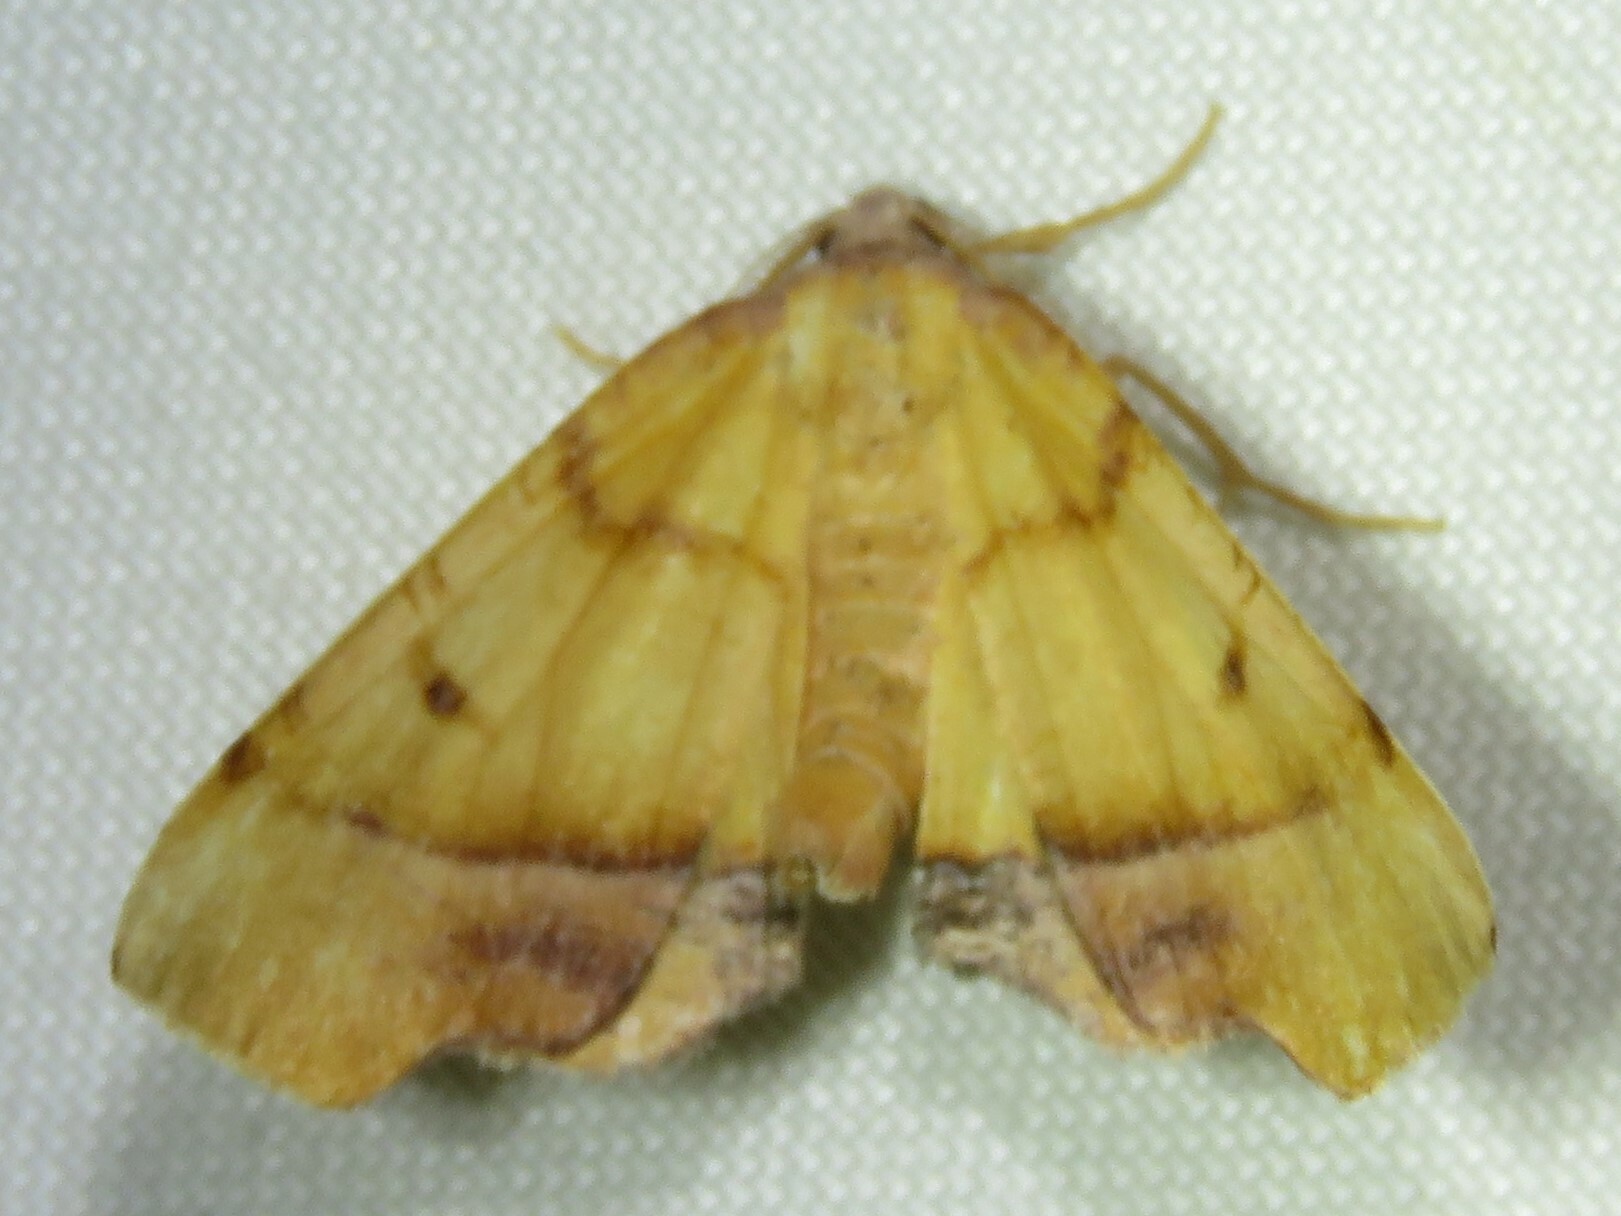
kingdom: Animalia
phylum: Arthropoda
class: Insecta
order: Lepidoptera
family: Geometridae
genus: Plagodis
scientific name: Plagodis phlogosaria
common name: Straight-lined plagodis
